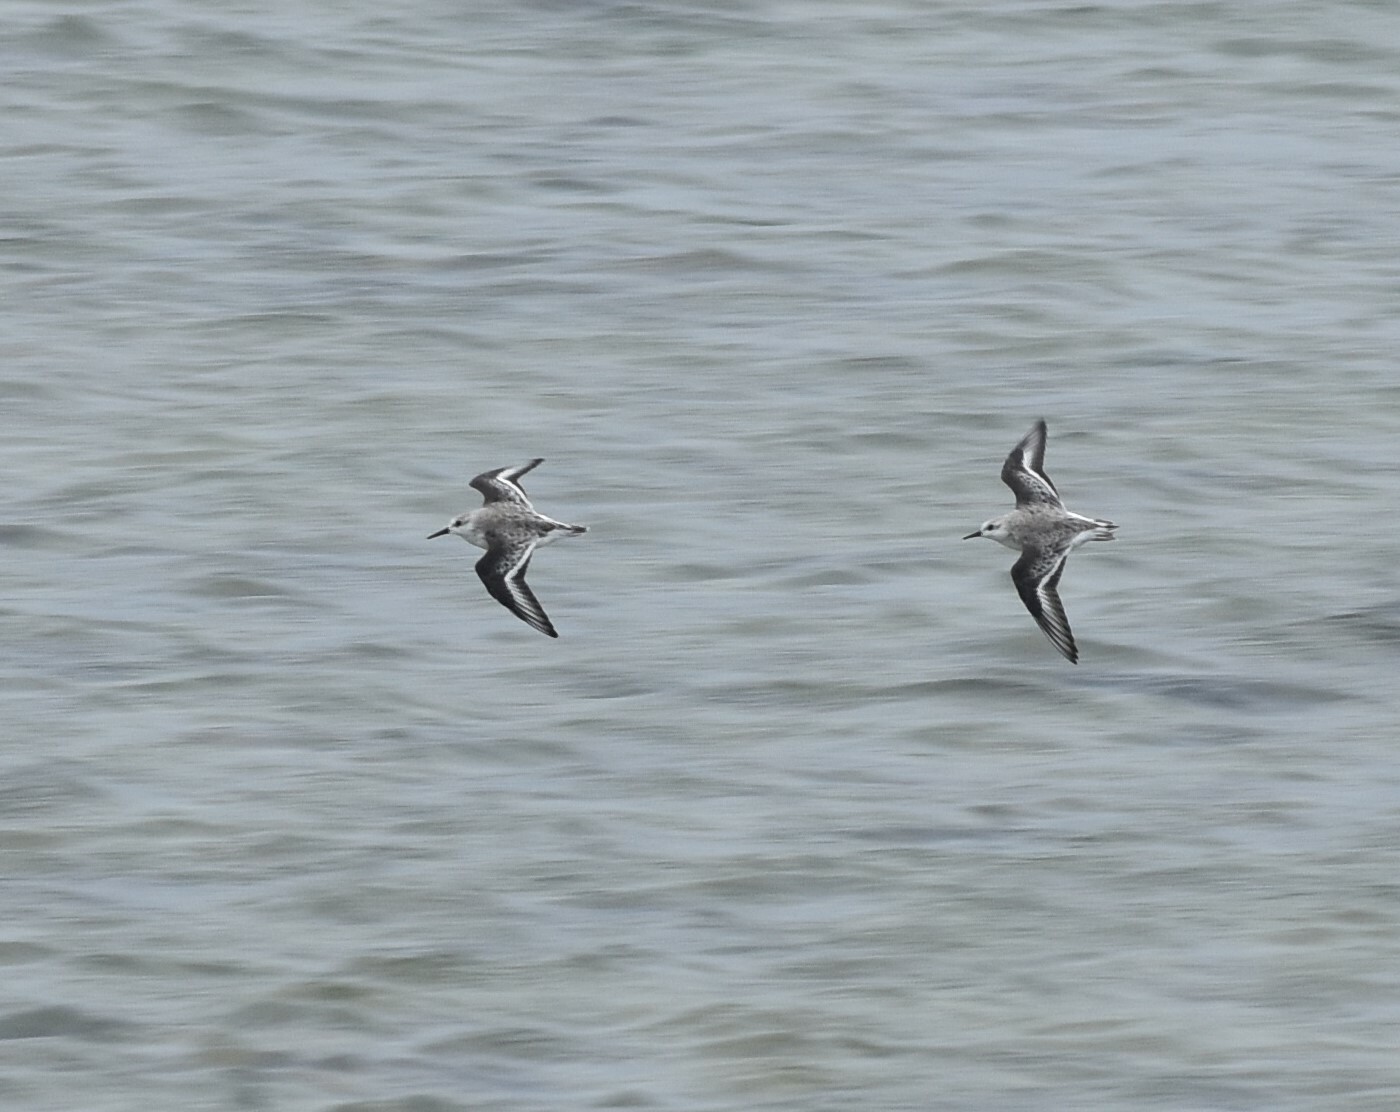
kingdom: Animalia
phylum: Chordata
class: Aves
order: Charadriiformes
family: Scolopacidae
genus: Calidris
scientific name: Calidris alba
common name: Sanderling
